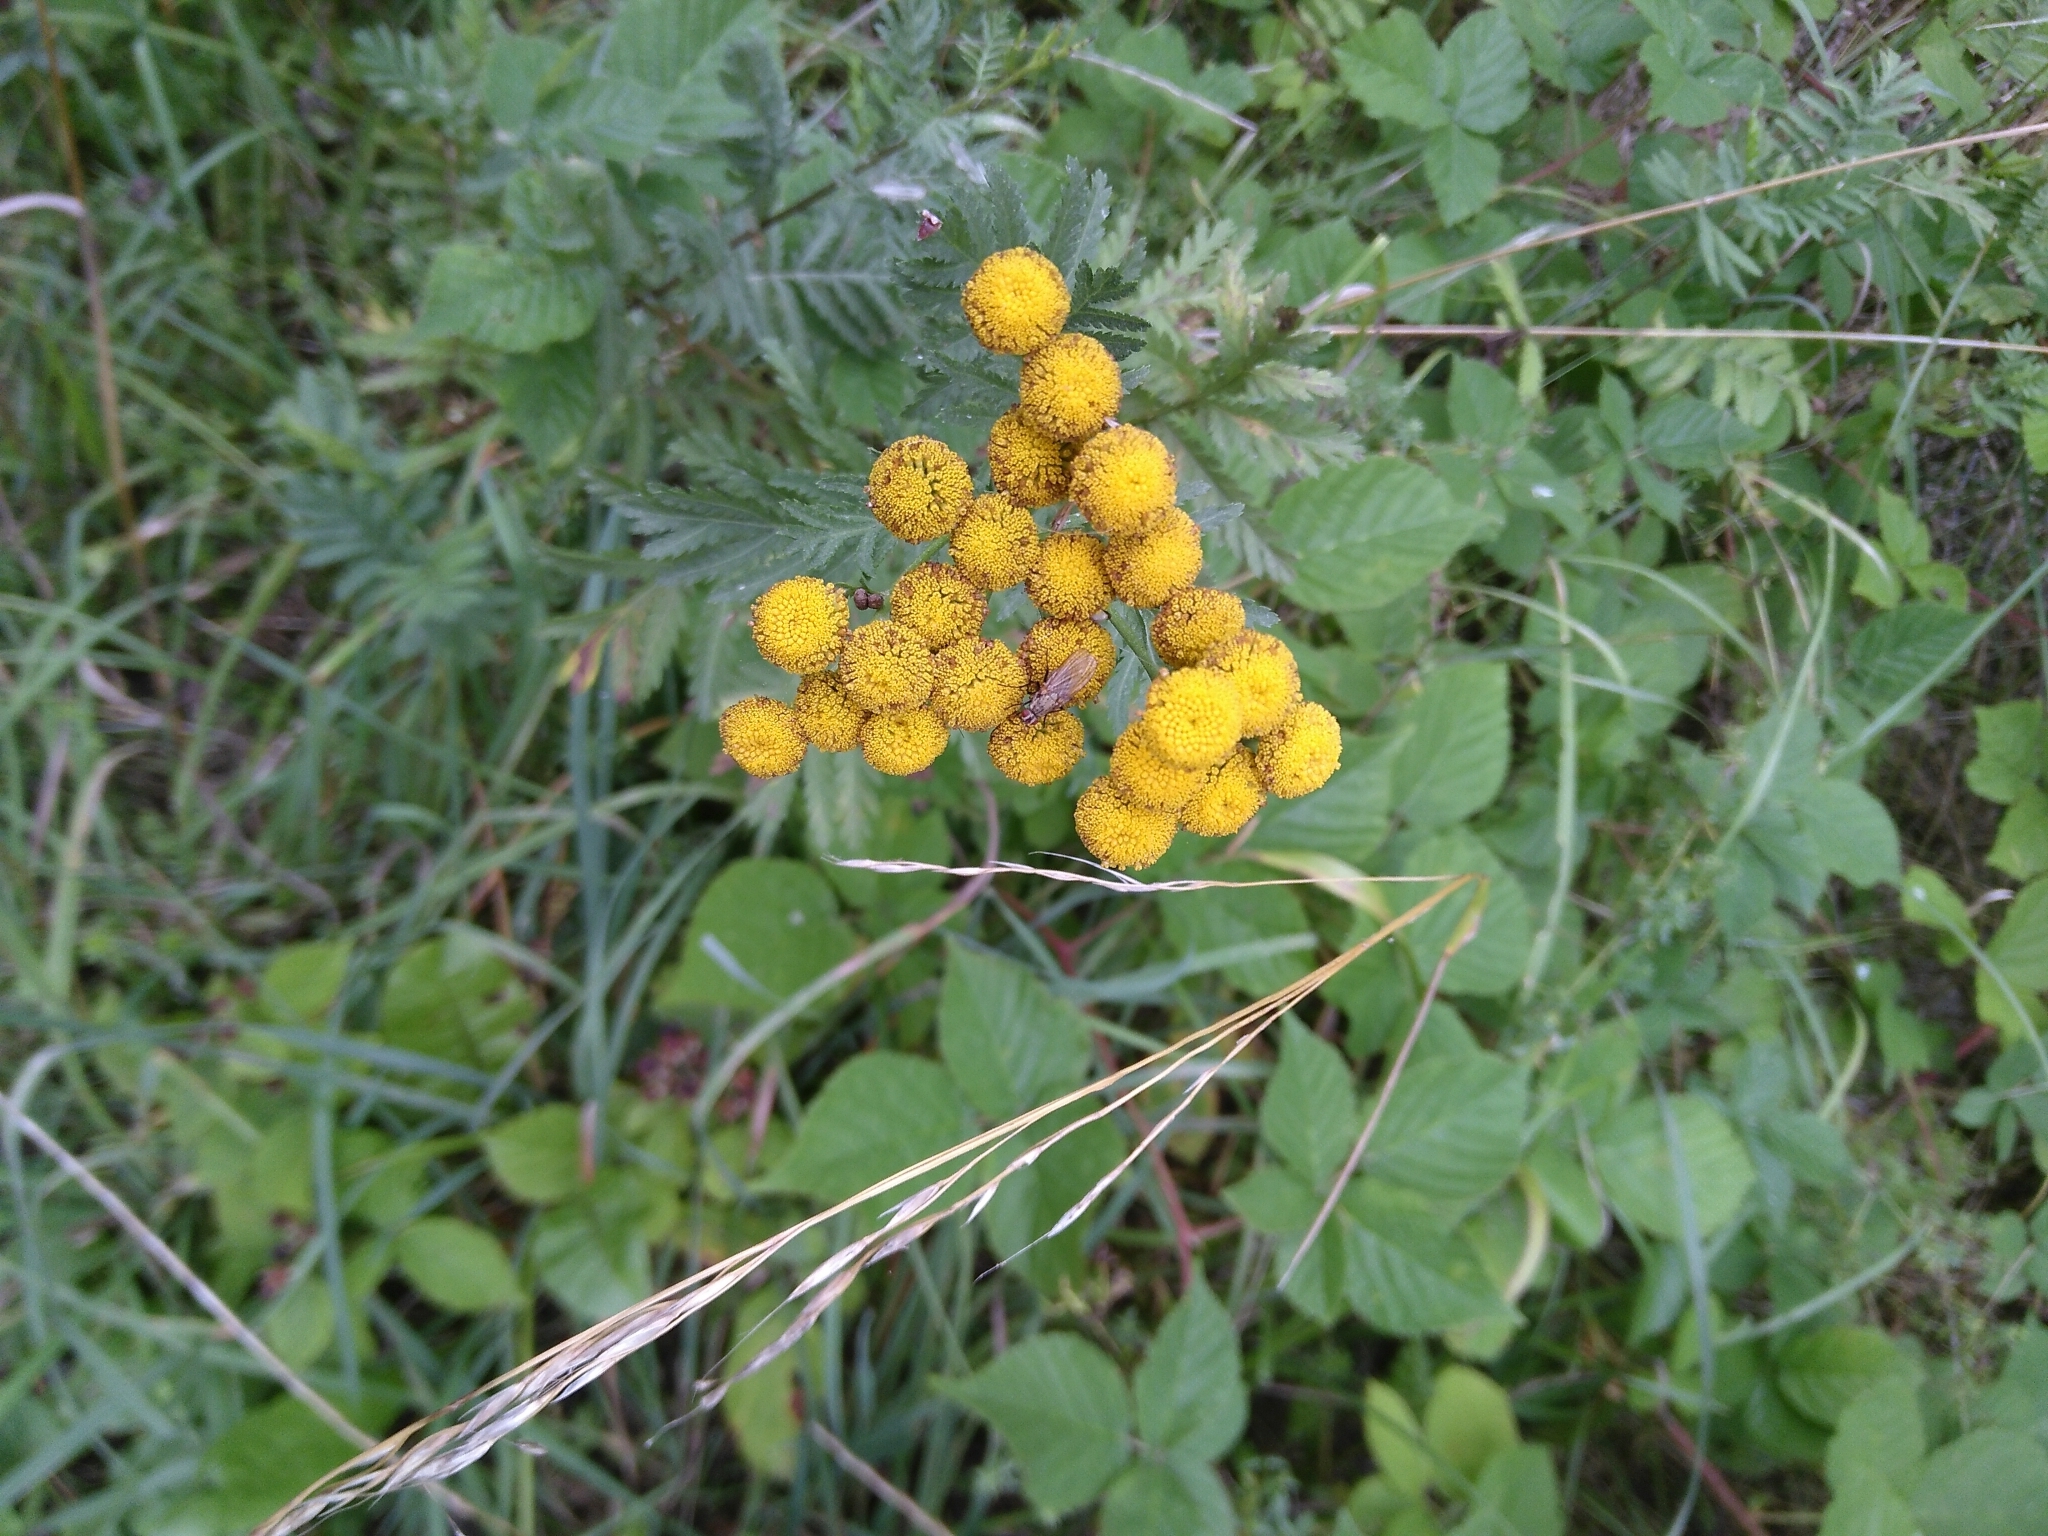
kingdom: Plantae
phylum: Tracheophyta
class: Magnoliopsida
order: Asterales
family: Asteraceae
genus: Tanacetum
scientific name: Tanacetum vulgare
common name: Common tansy
